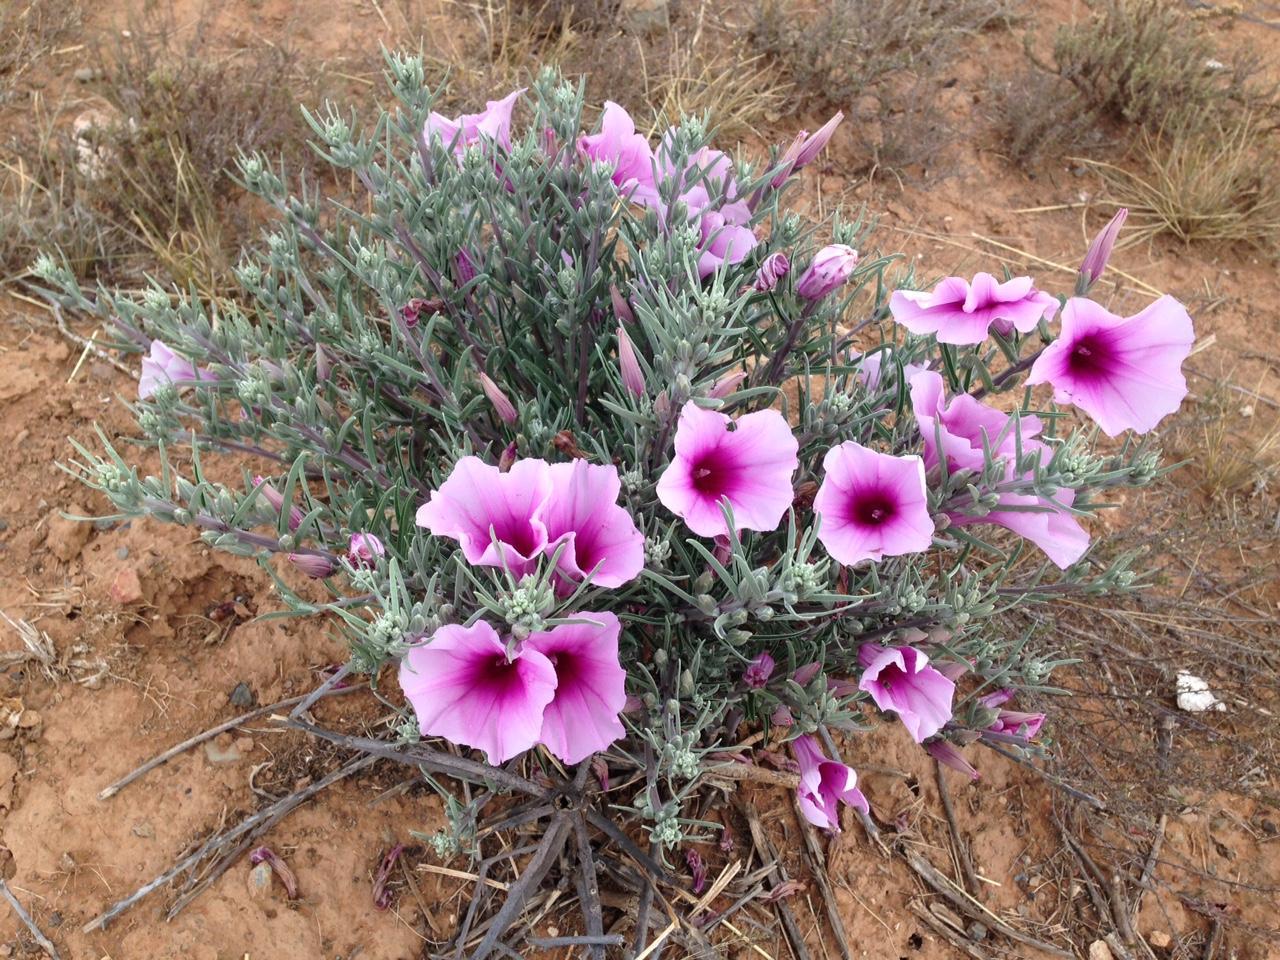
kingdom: Plantae
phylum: Tracheophyta
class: Magnoliopsida
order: Solanales
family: Convolvulaceae
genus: Ipomoea
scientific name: Ipomoea oenotheroides
